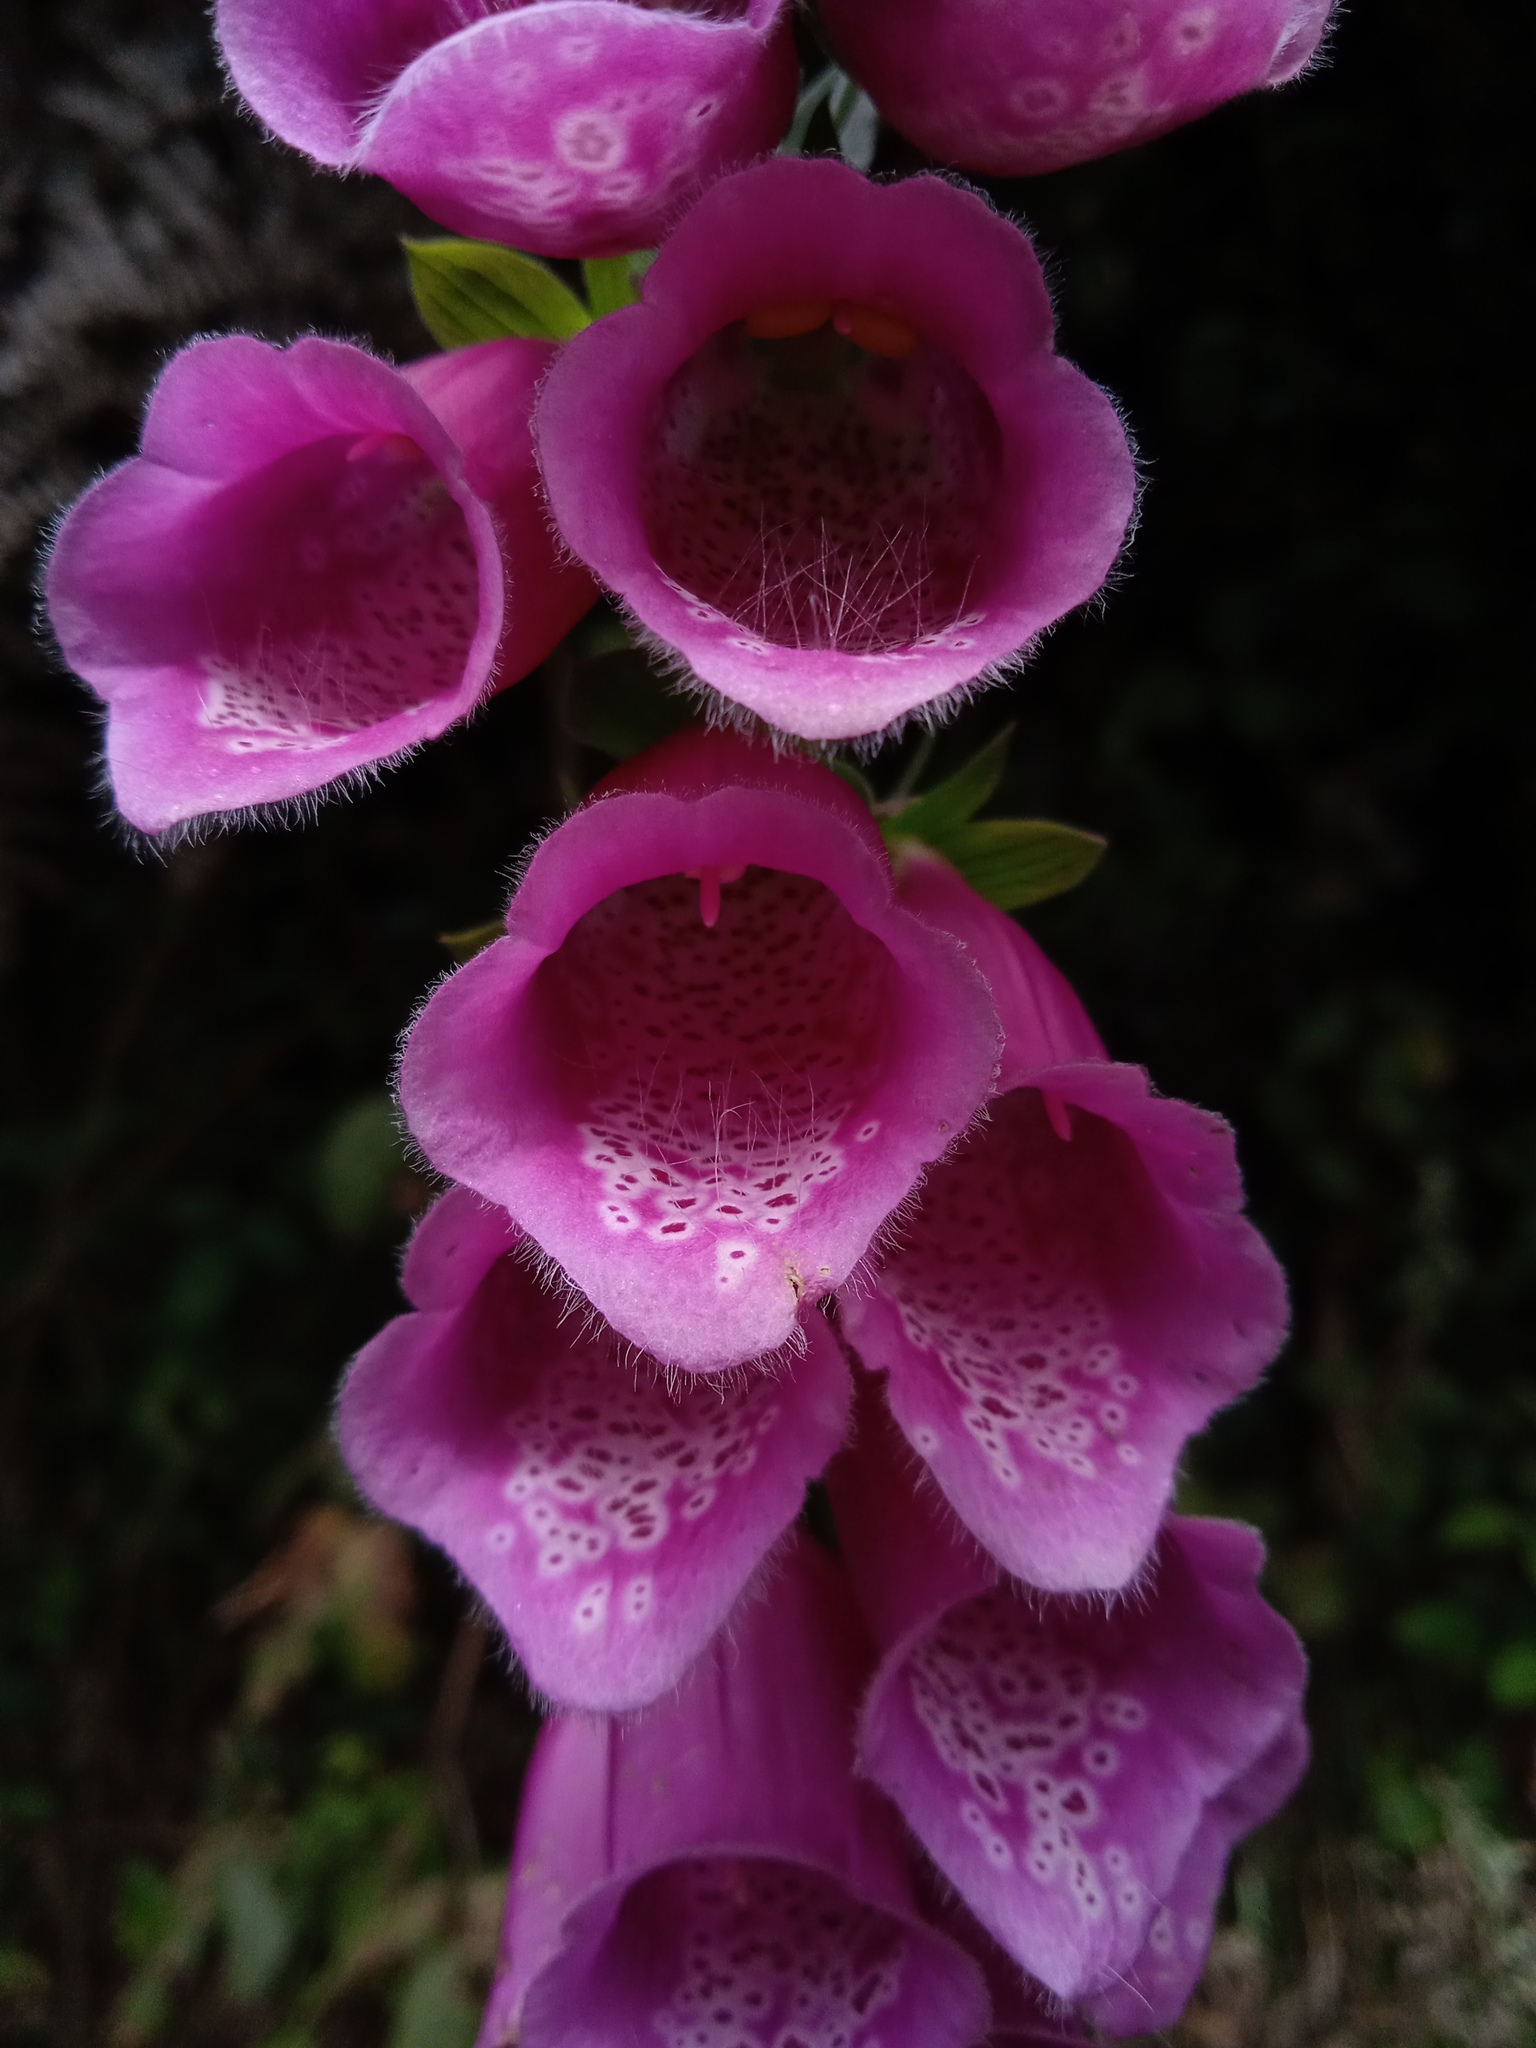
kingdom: Plantae
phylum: Tracheophyta
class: Magnoliopsida
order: Lamiales
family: Plantaginaceae
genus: Digitalis
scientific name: Digitalis purpurea
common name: Foxglove
